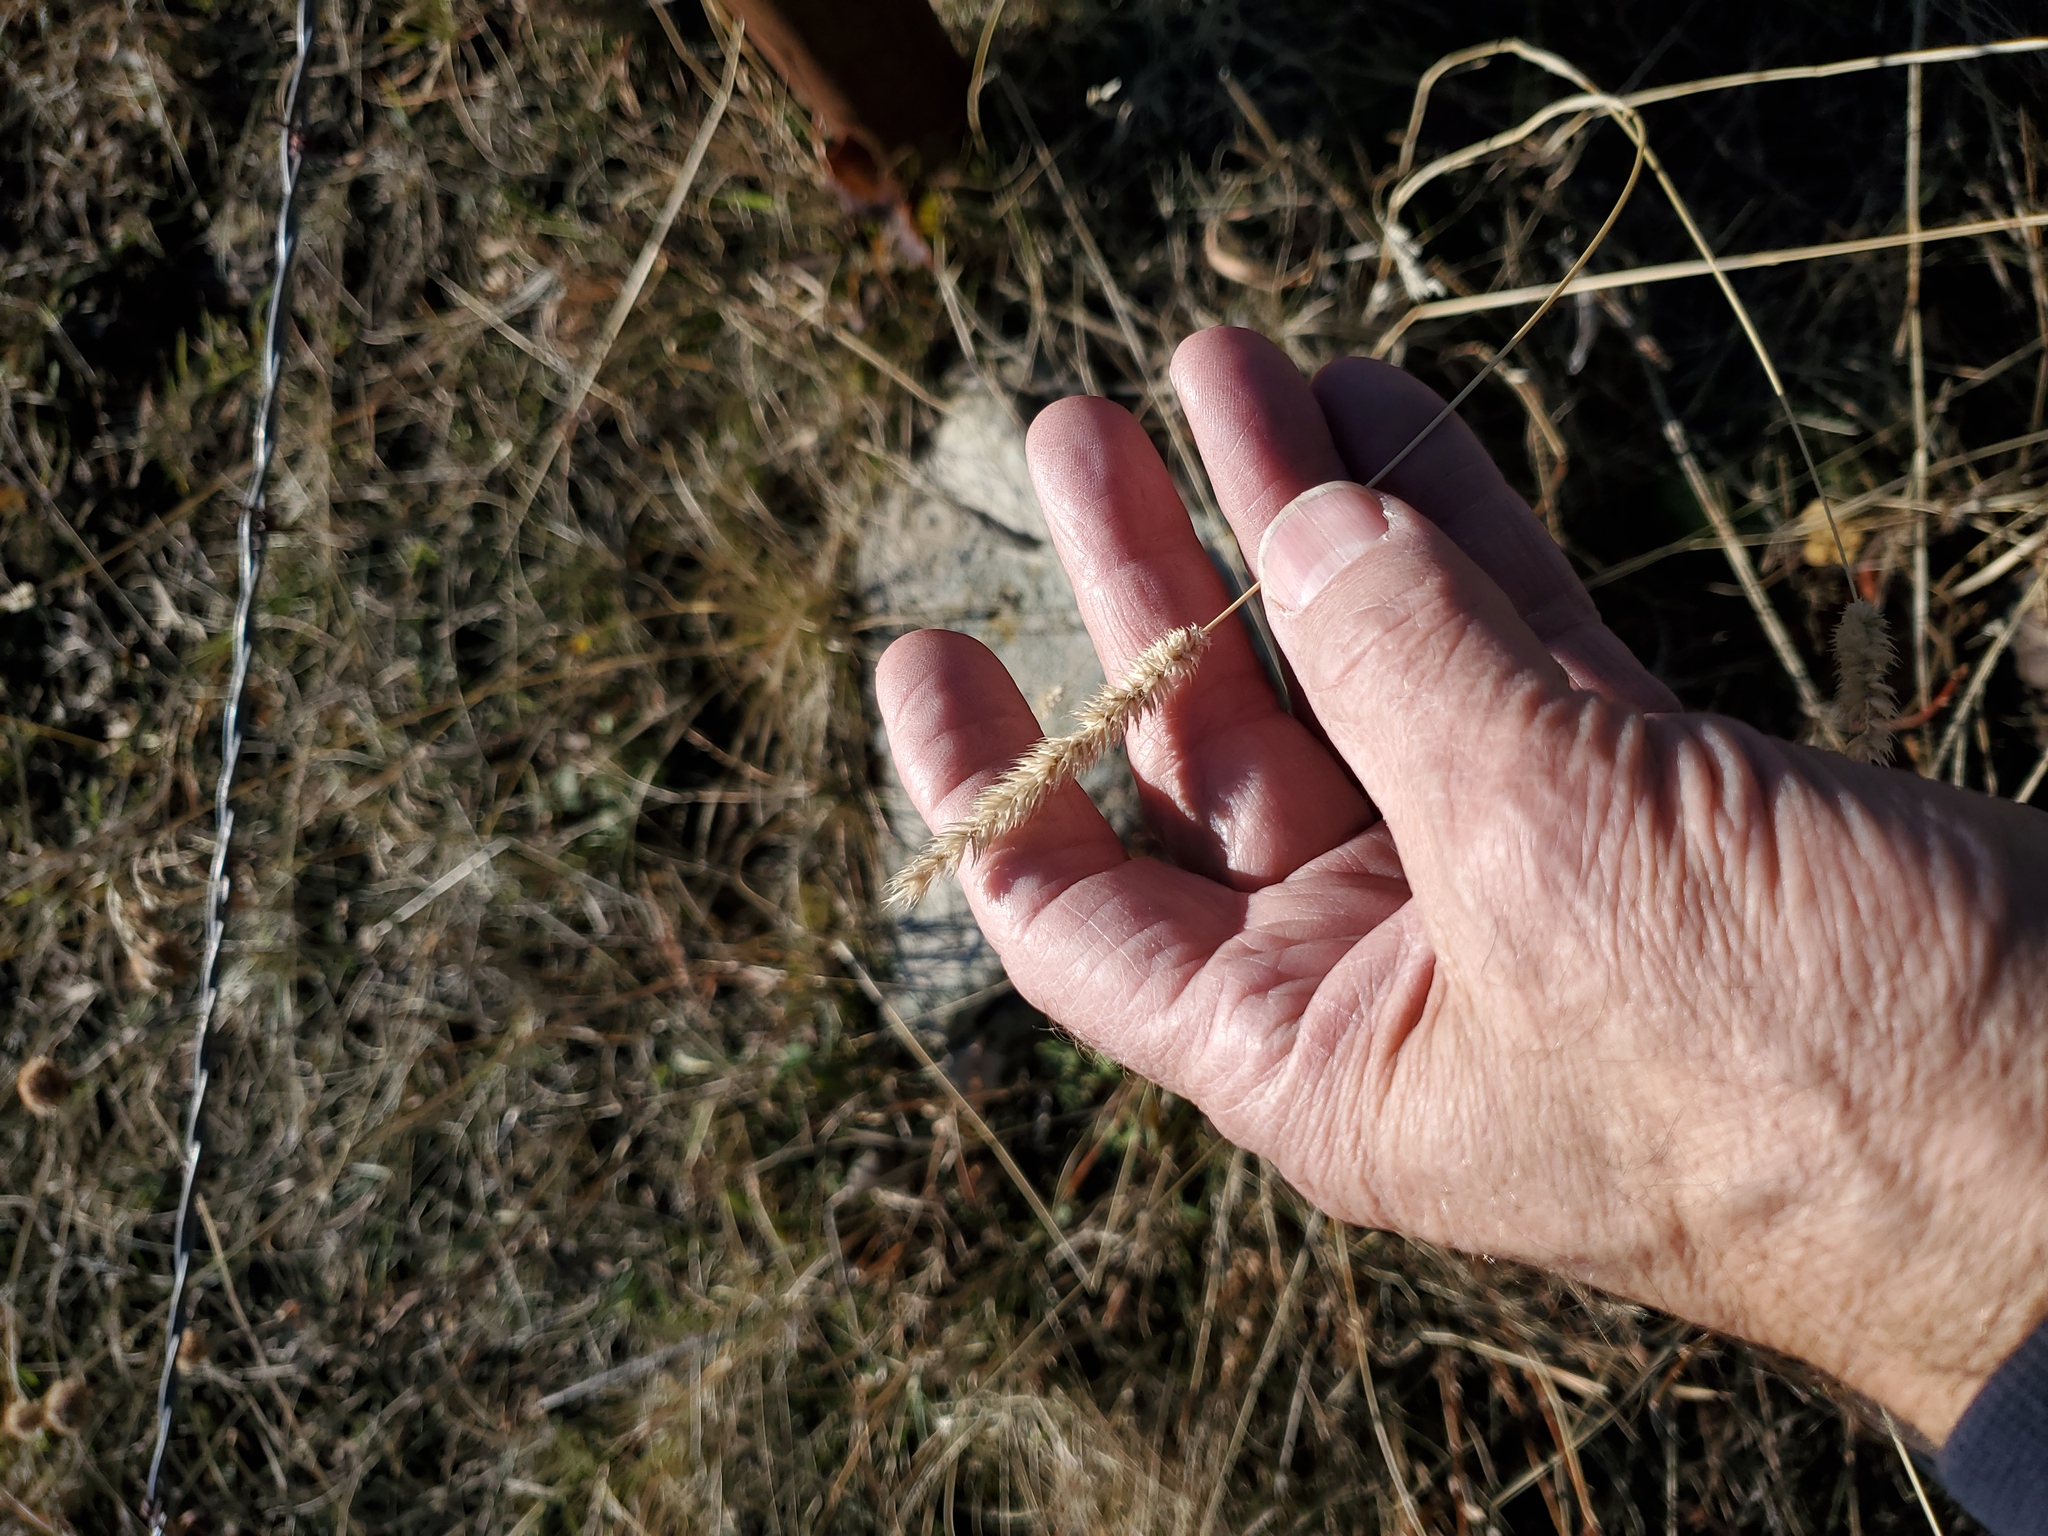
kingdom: Plantae
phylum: Tracheophyta
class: Liliopsida
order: Poales
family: Poaceae
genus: Phleum
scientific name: Phleum pratense
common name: Timothy grass
